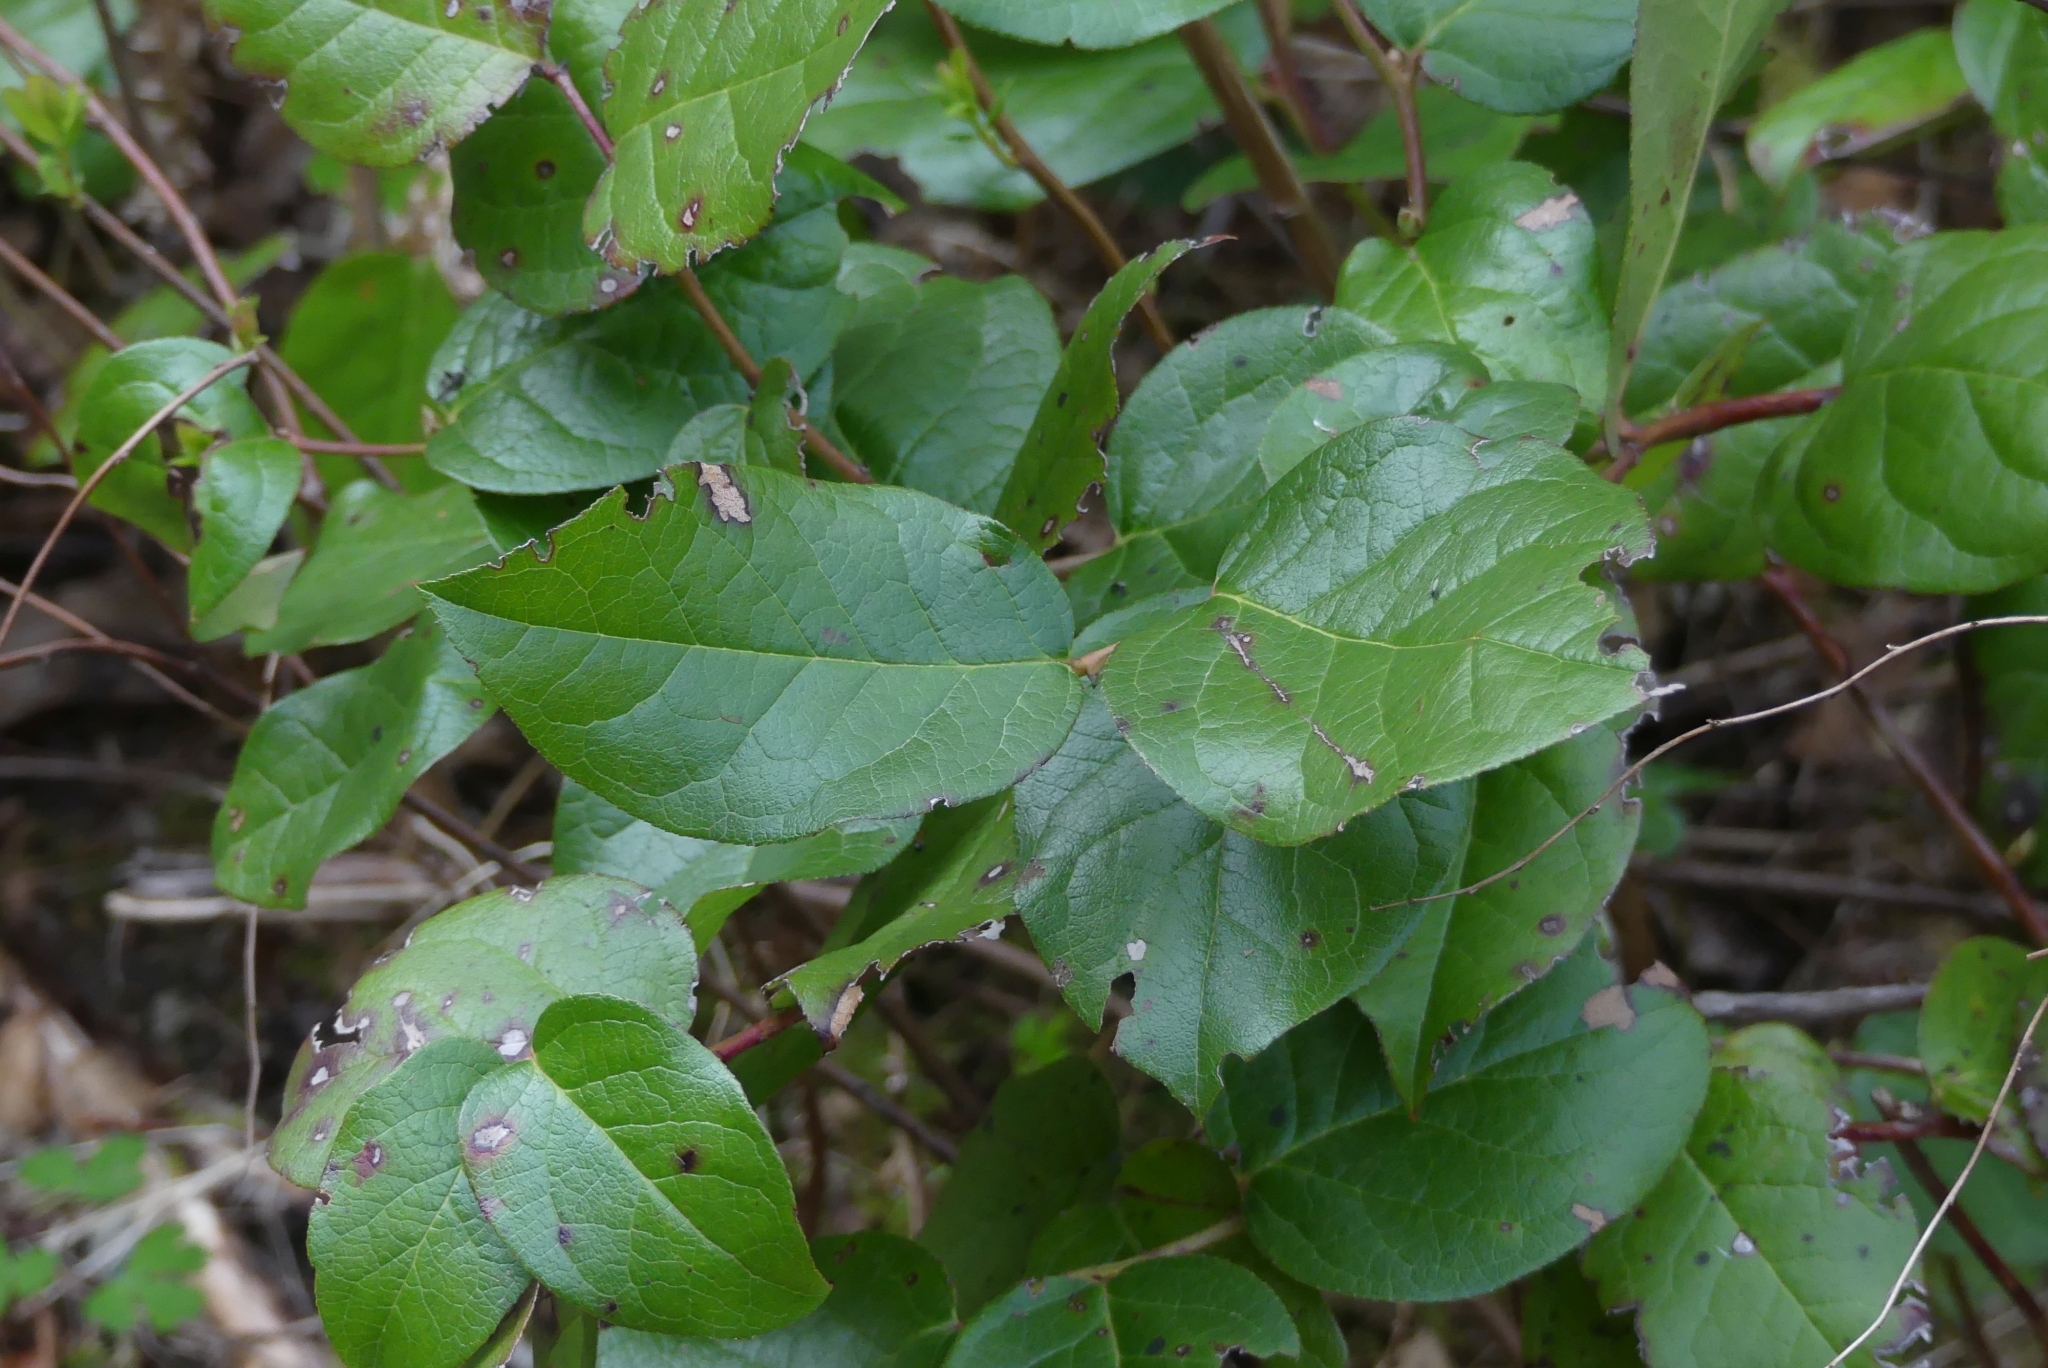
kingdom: Plantae
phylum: Tracheophyta
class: Magnoliopsida
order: Ericales
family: Ericaceae
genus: Gaultheria
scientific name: Gaultheria shallon
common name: Shallon
